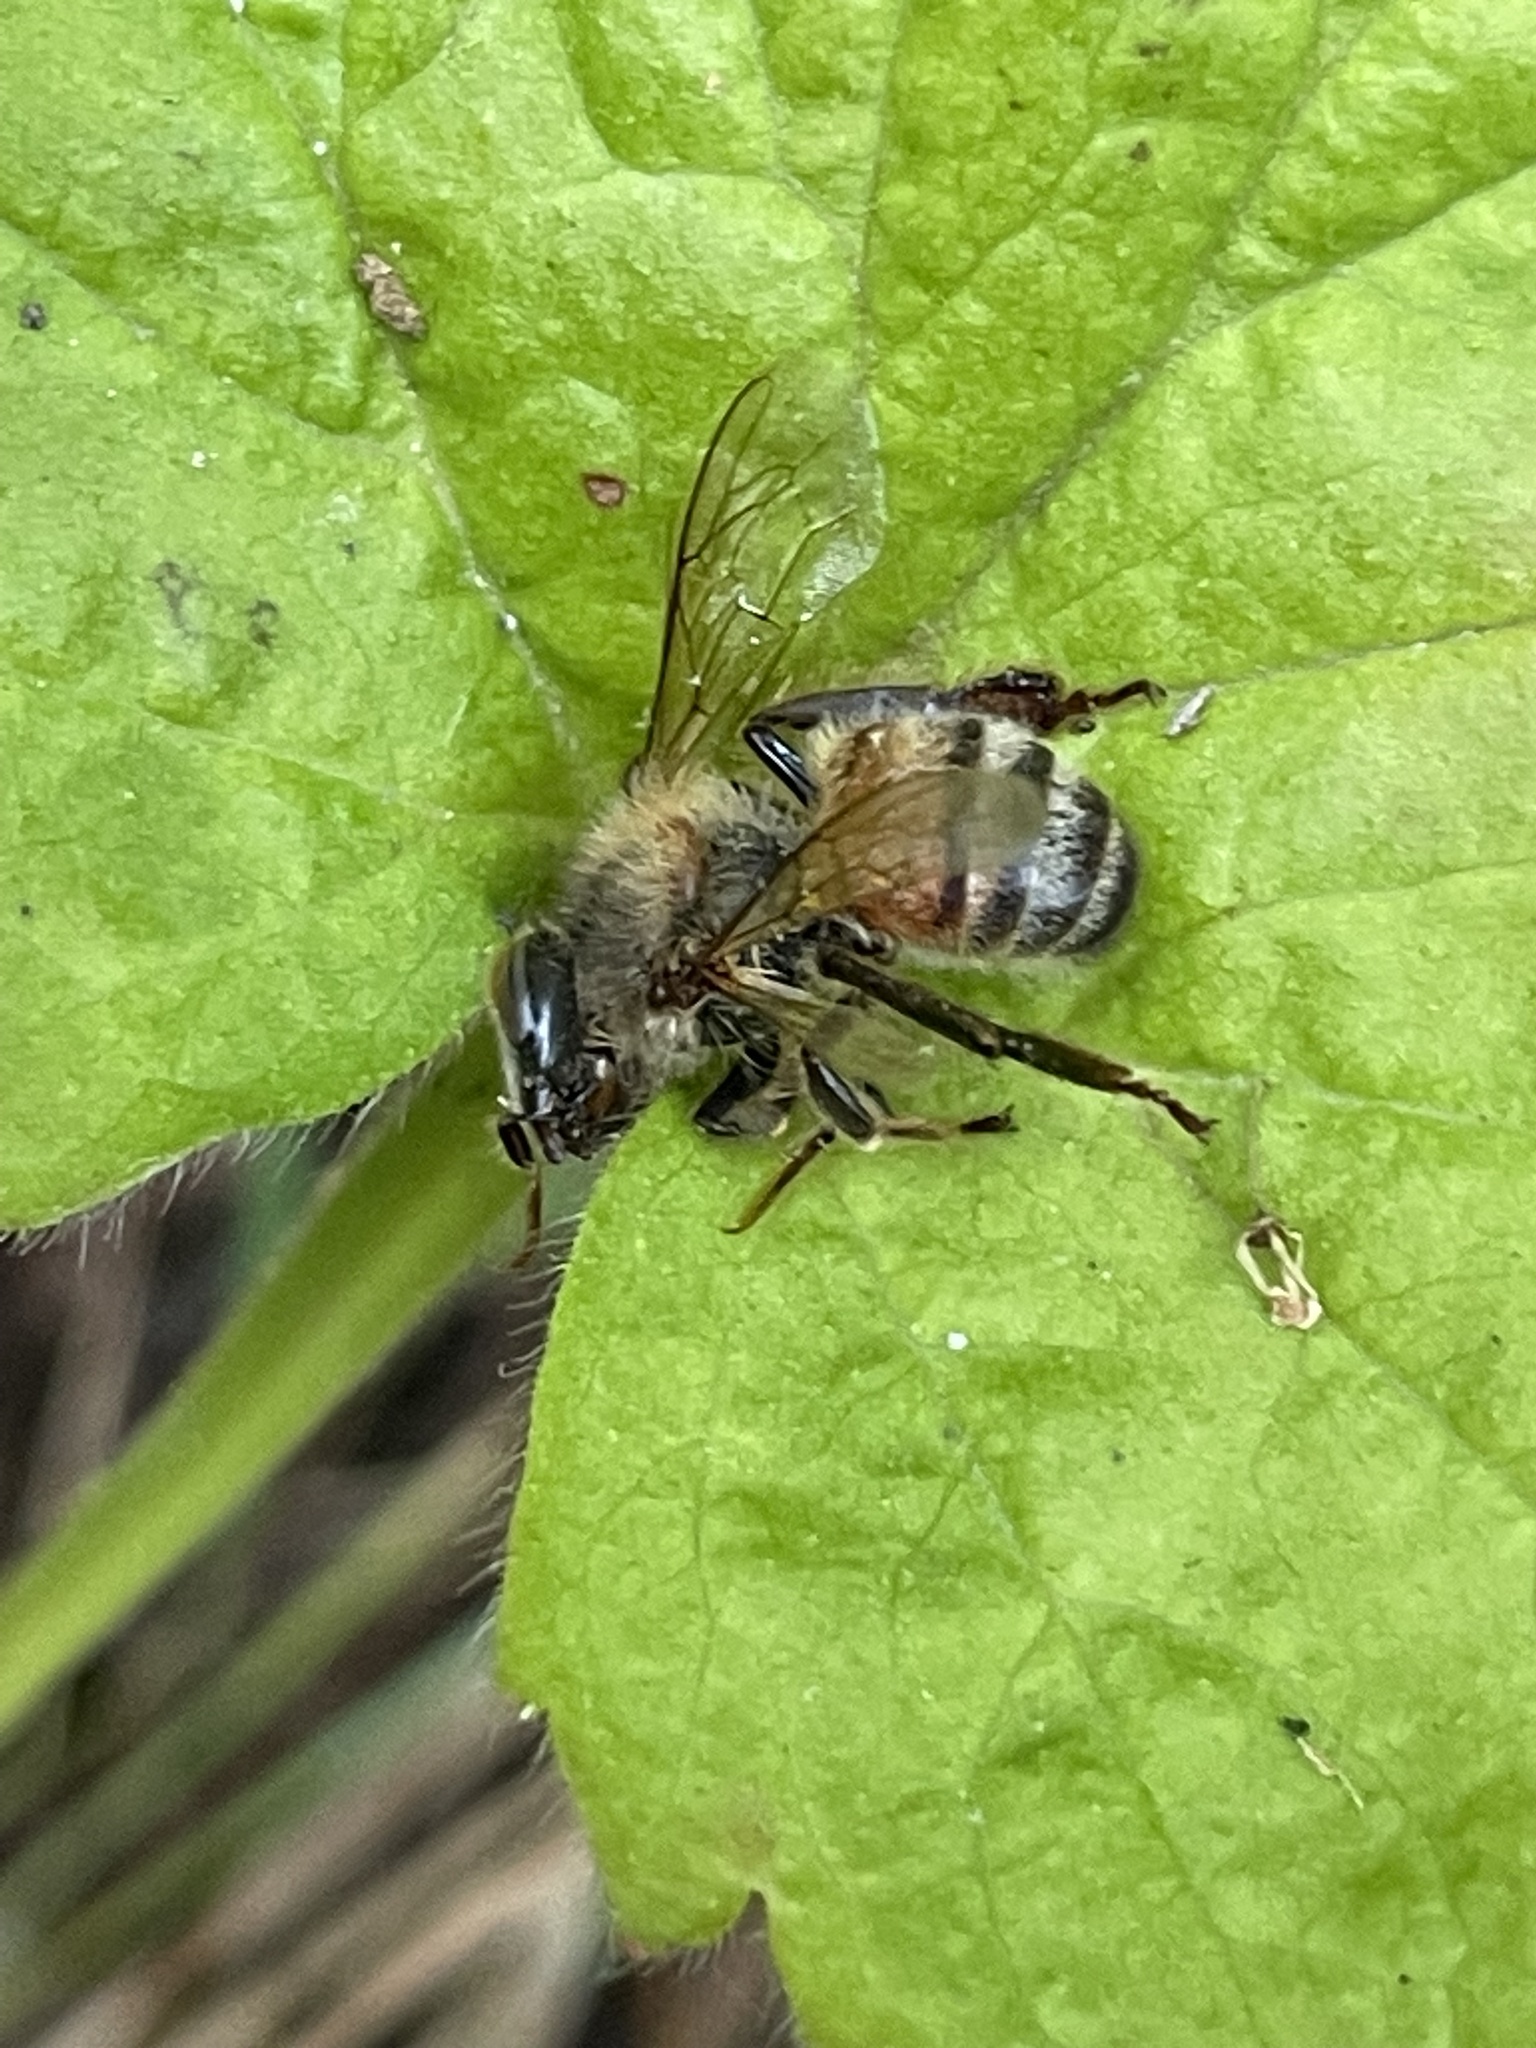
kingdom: Animalia
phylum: Arthropoda
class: Insecta
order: Hymenoptera
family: Apidae
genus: Apis
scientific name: Apis mellifera
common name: Honey bee
